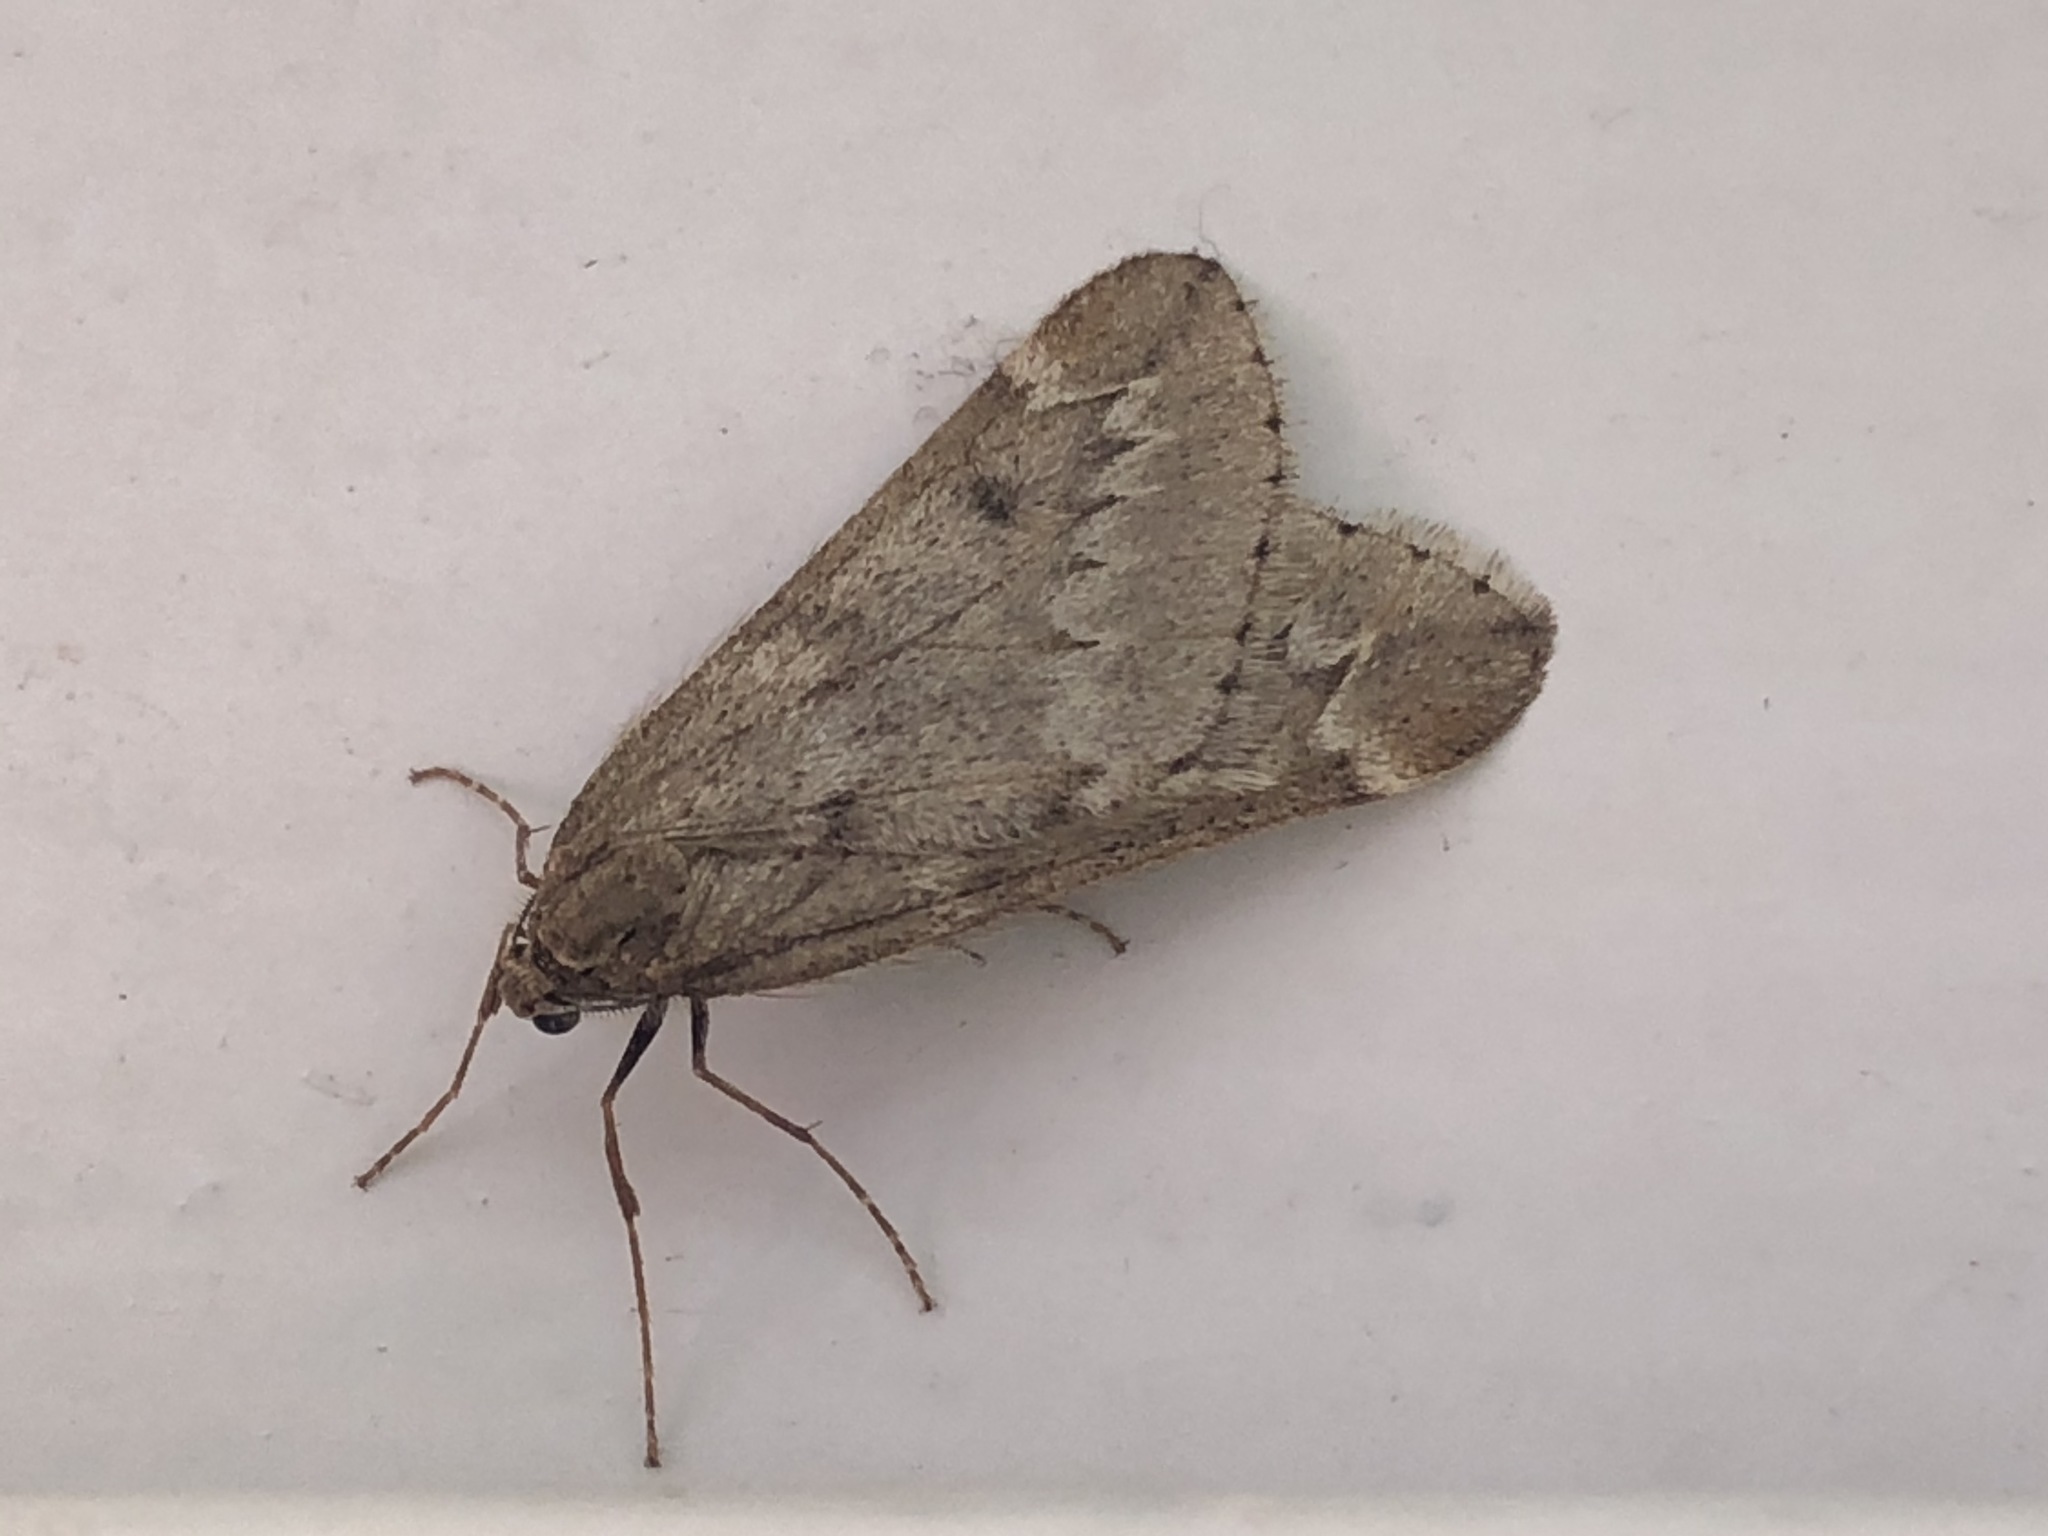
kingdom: Animalia
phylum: Arthropoda
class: Insecta
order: Lepidoptera
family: Geometridae
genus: Alsophila
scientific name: Alsophila aescularia
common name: March moth
